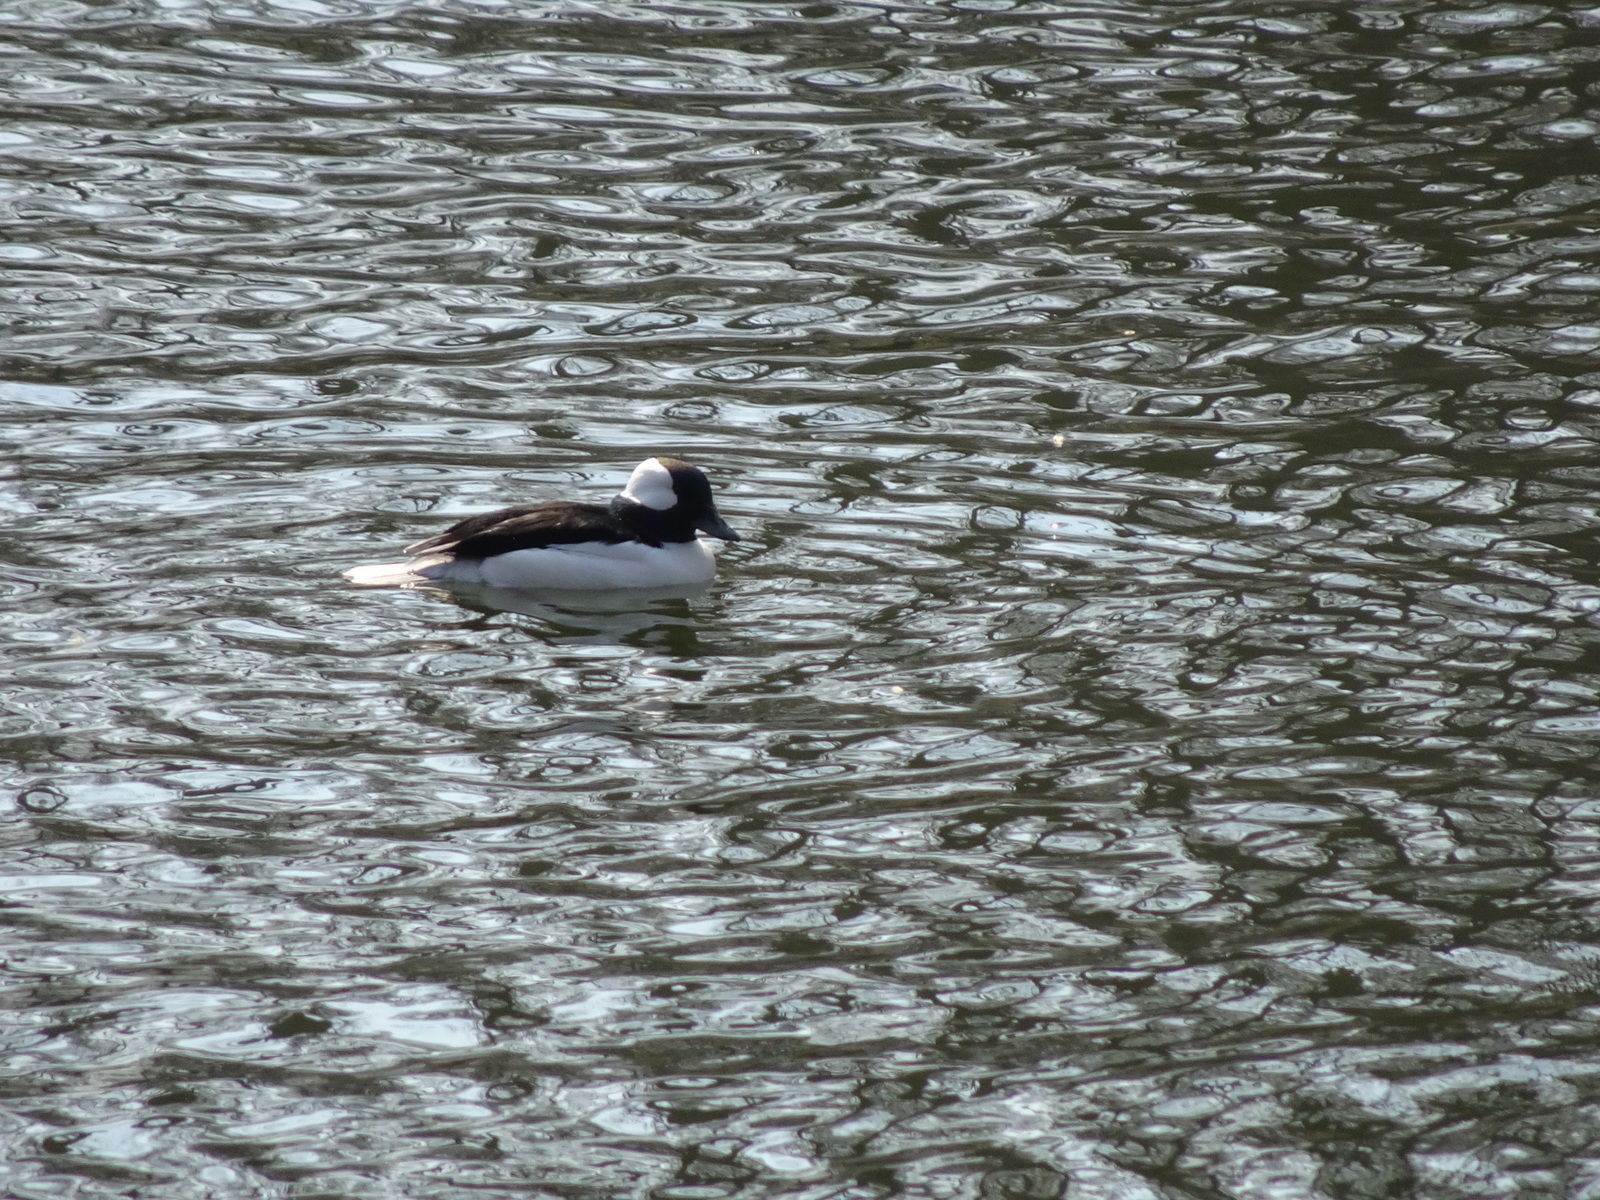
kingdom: Animalia
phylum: Chordata
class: Aves
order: Anseriformes
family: Anatidae
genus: Bucephala
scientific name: Bucephala albeola
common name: Bufflehead
